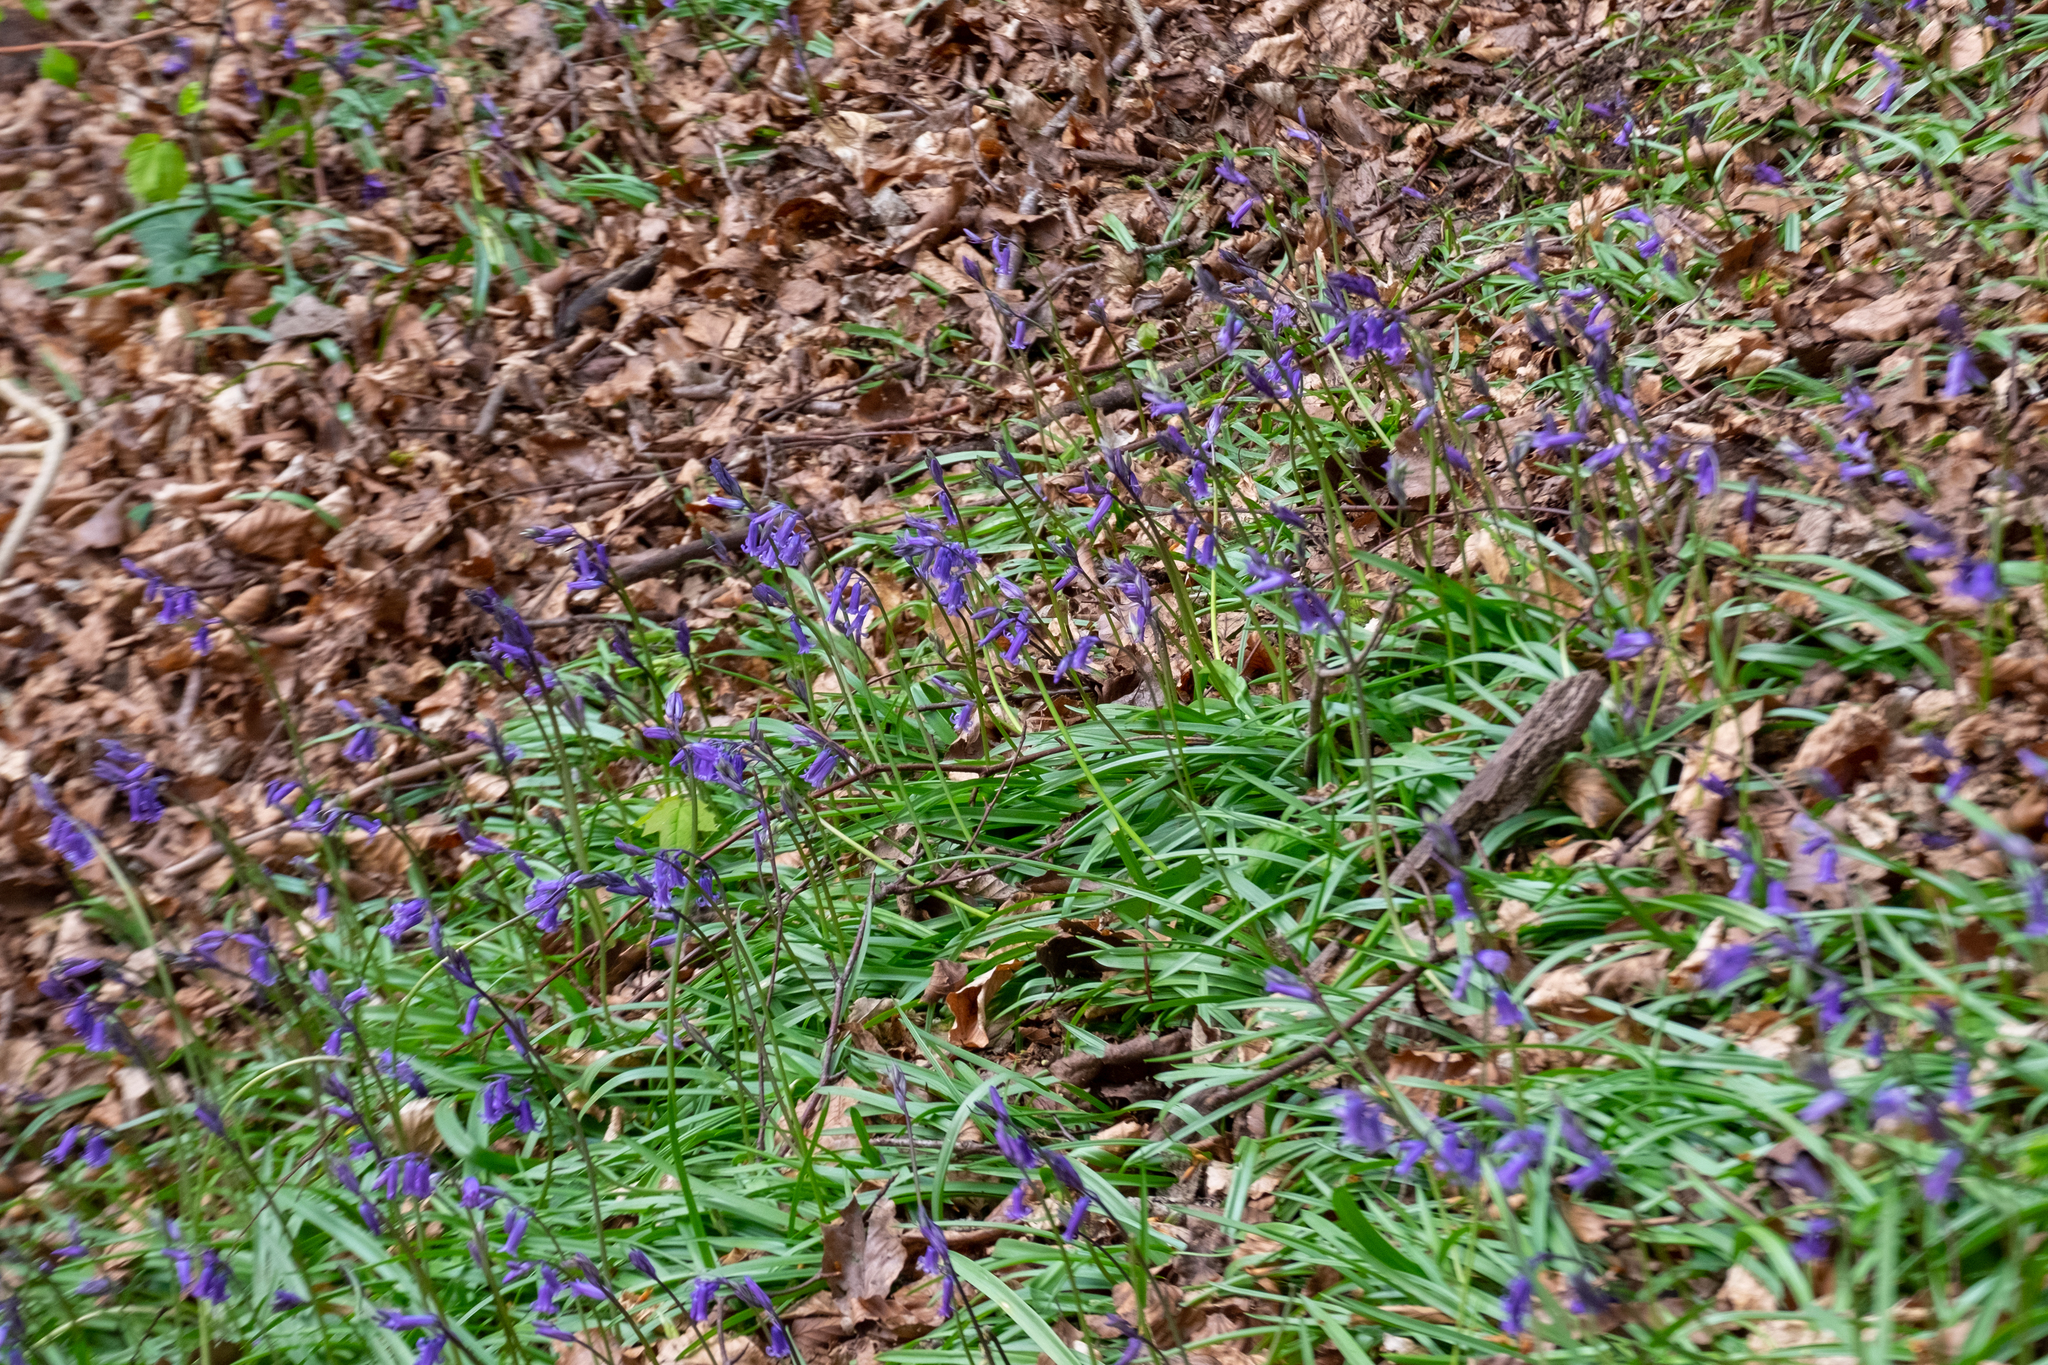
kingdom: Plantae
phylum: Tracheophyta
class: Liliopsida
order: Asparagales
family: Asparagaceae
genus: Hyacinthoides
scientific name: Hyacinthoides non-scripta
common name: Bluebell
